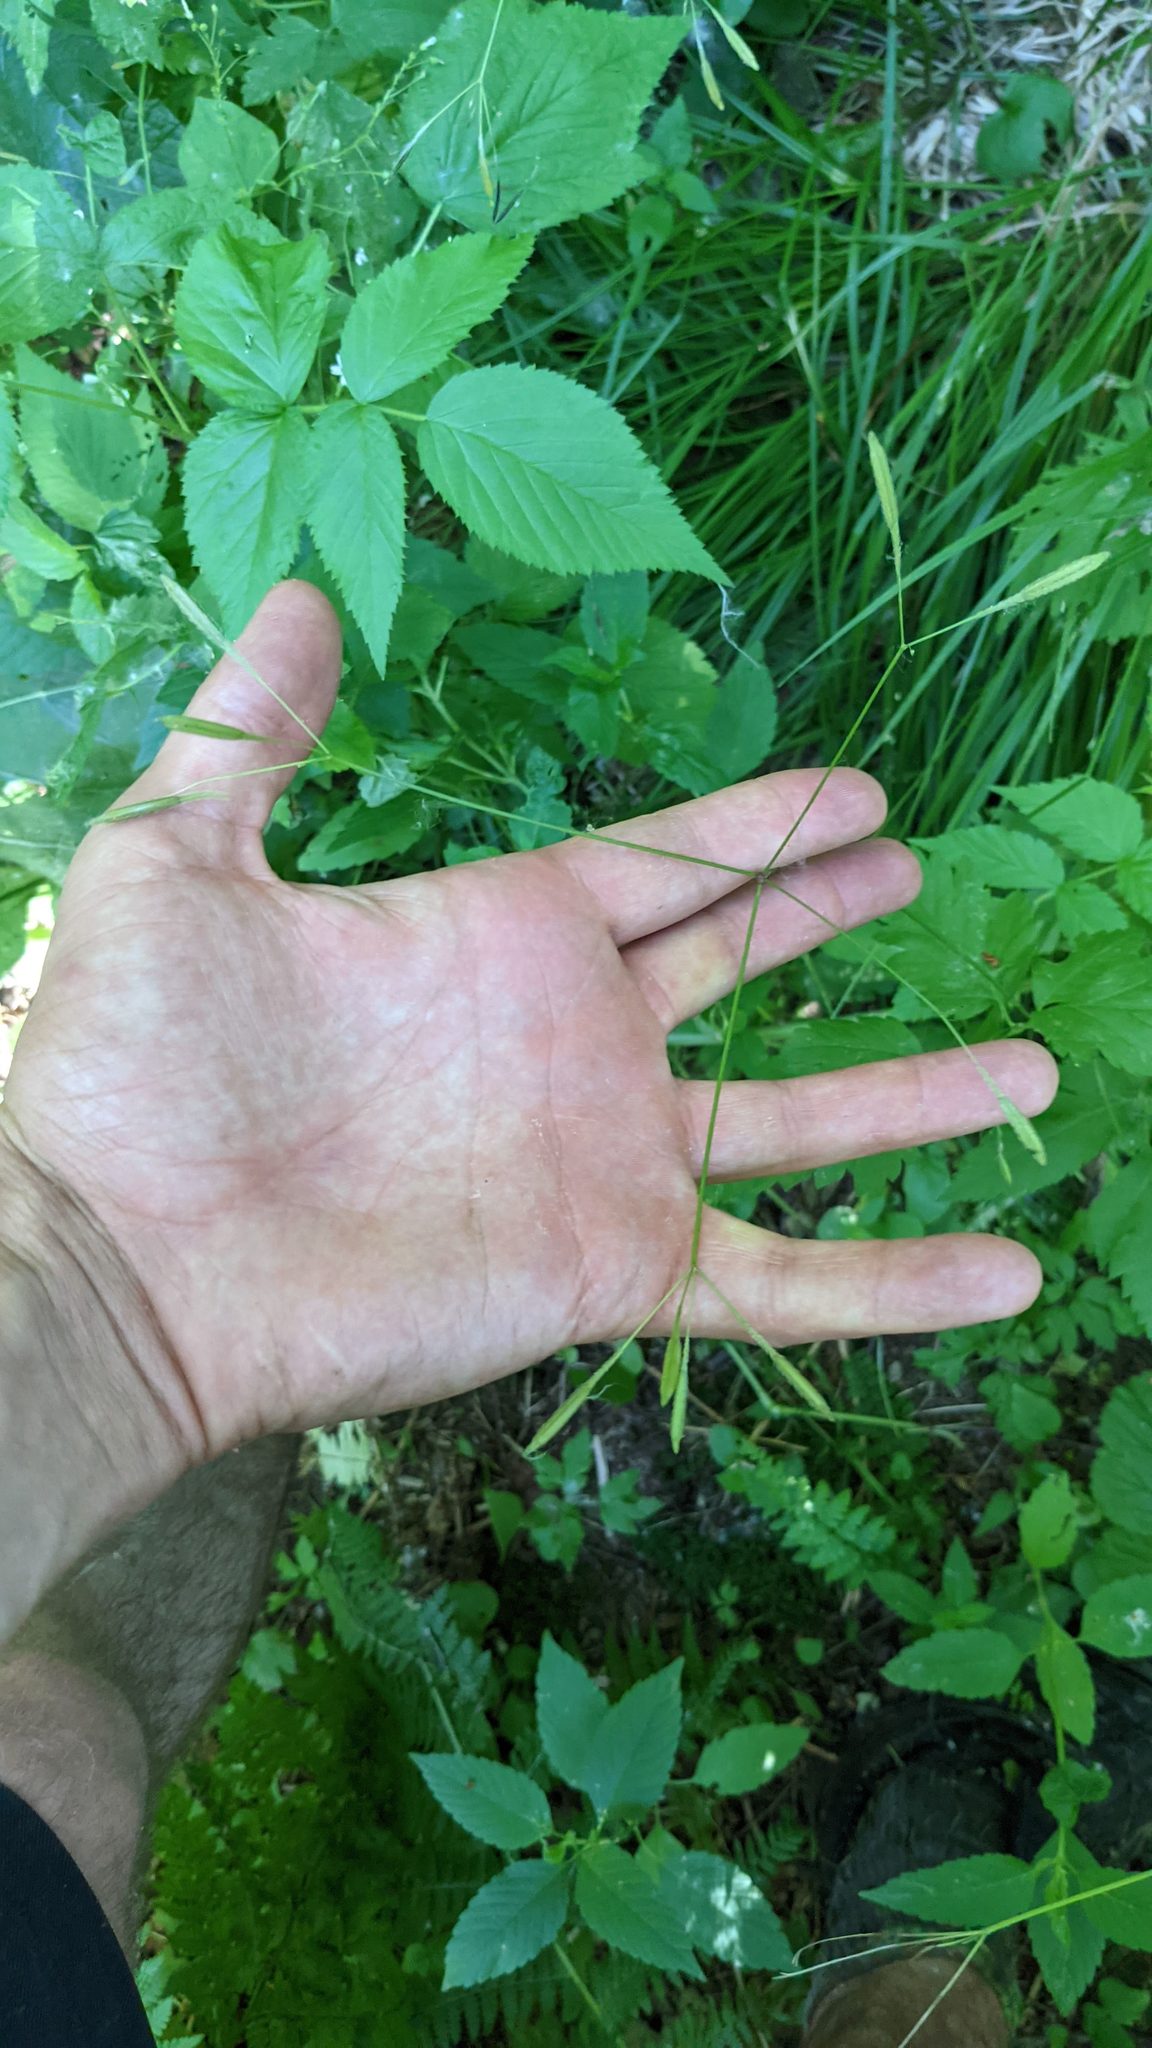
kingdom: Plantae
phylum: Tracheophyta
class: Magnoliopsida
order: Apiales
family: Apiaceae
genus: Osmorhiza
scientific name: Osmorhiza berteroi
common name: Mountain sweet cicely
